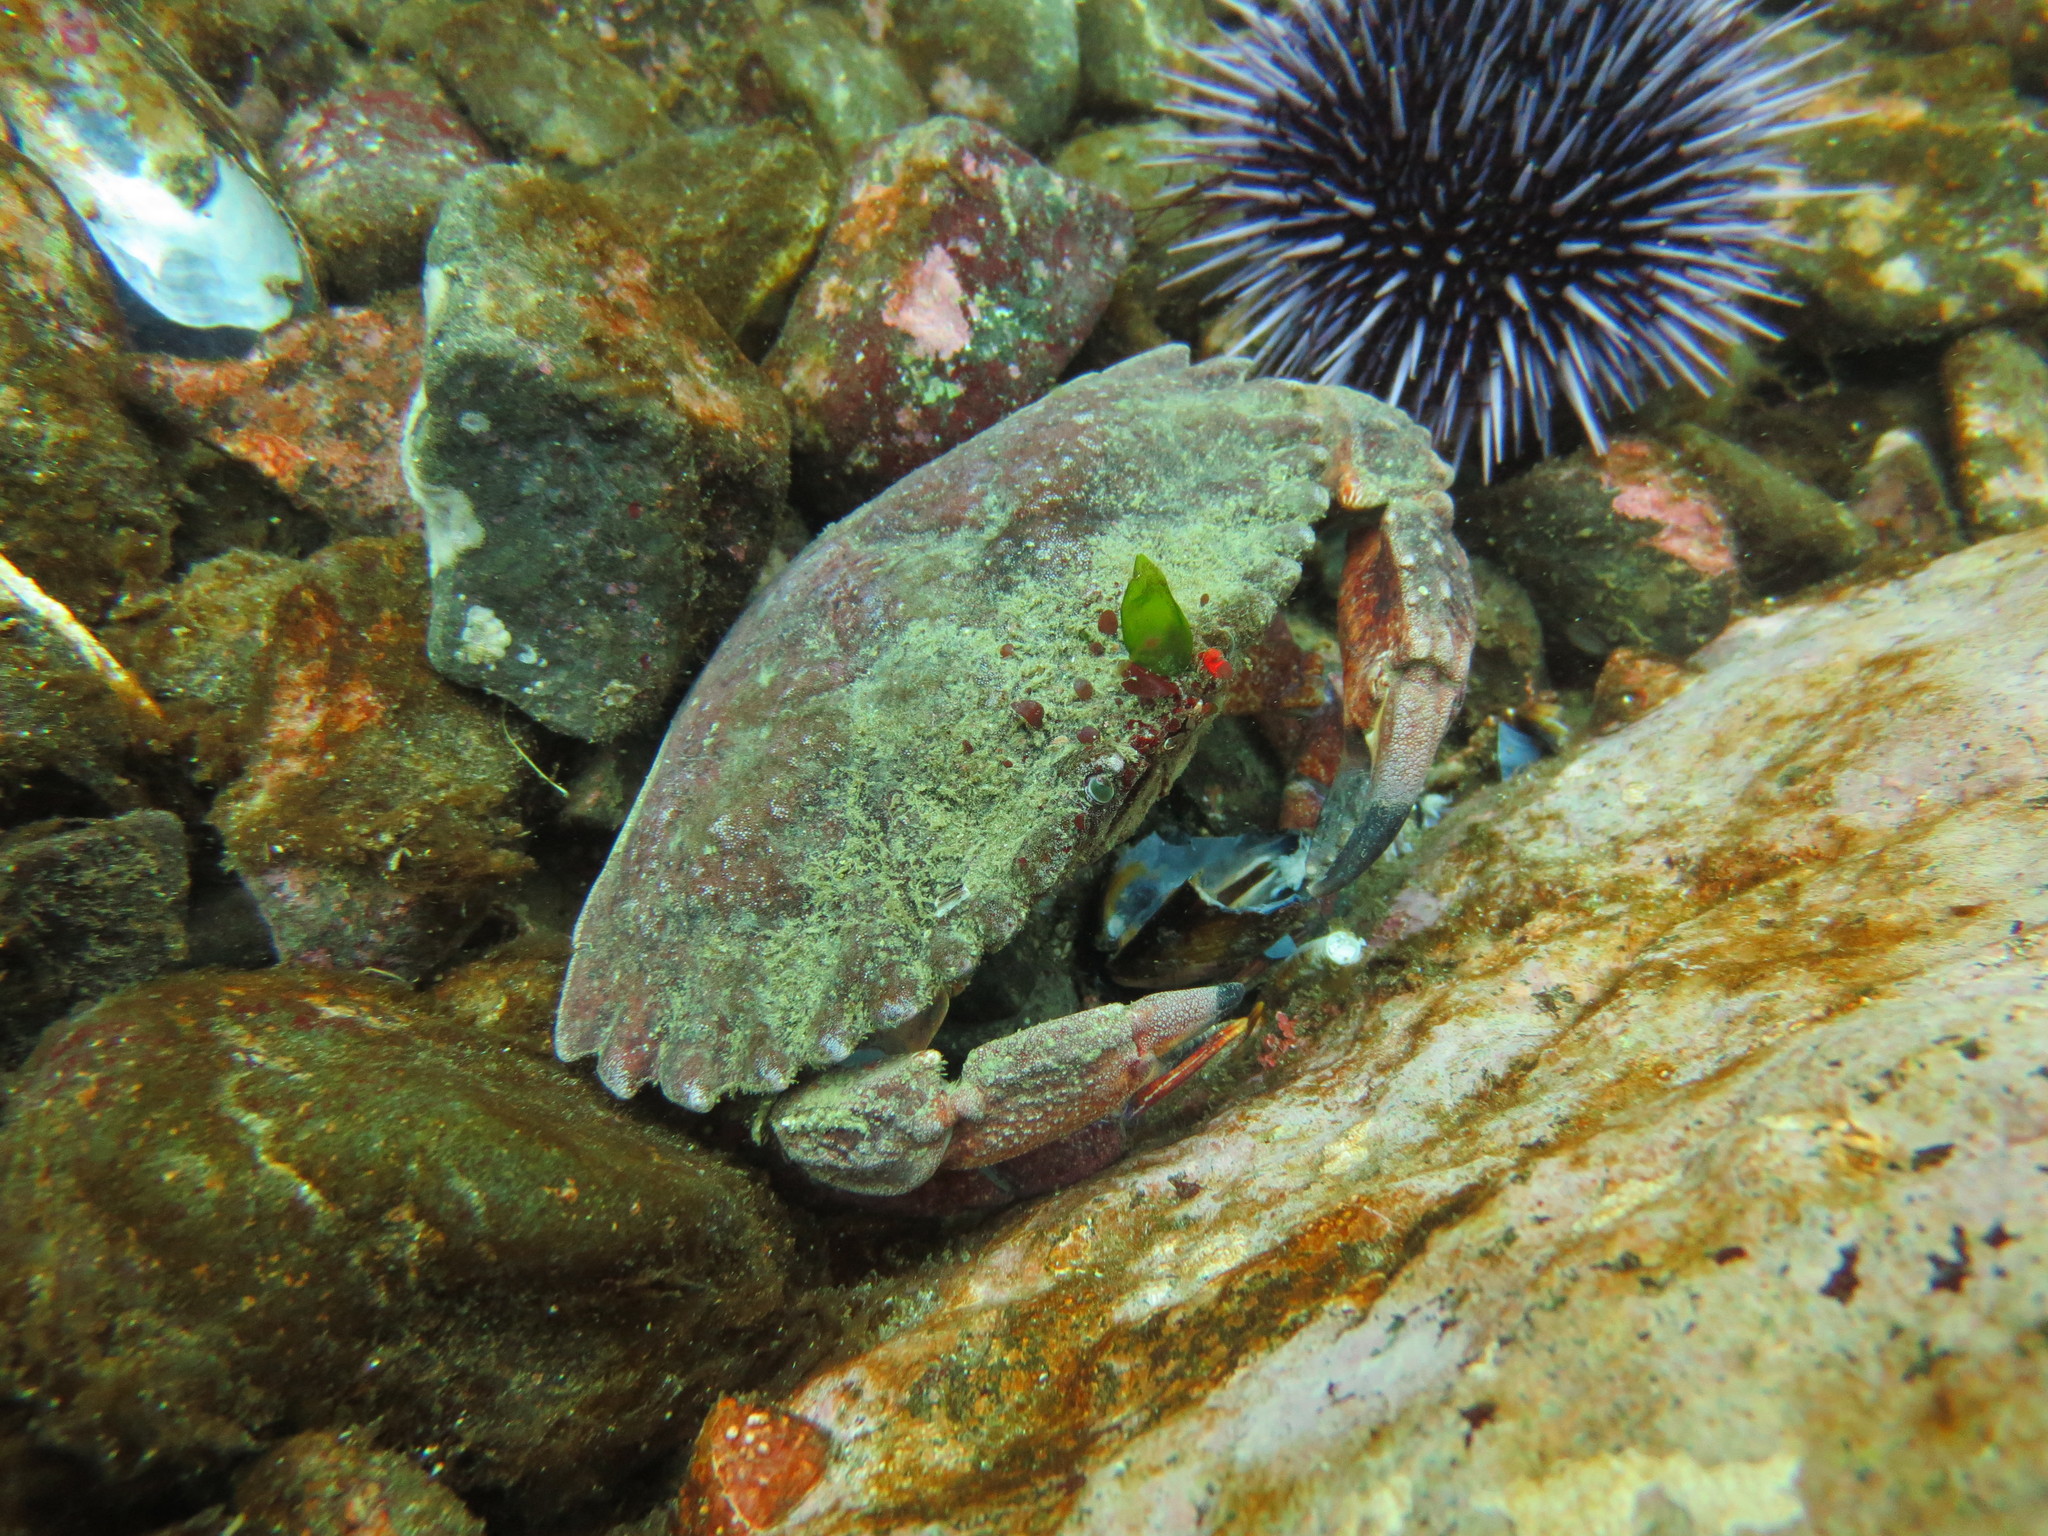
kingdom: Animalia
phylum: Arthropoda
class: Malacostraca
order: Decapoda
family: Cancridae
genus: Cancer
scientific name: Cancer productus
